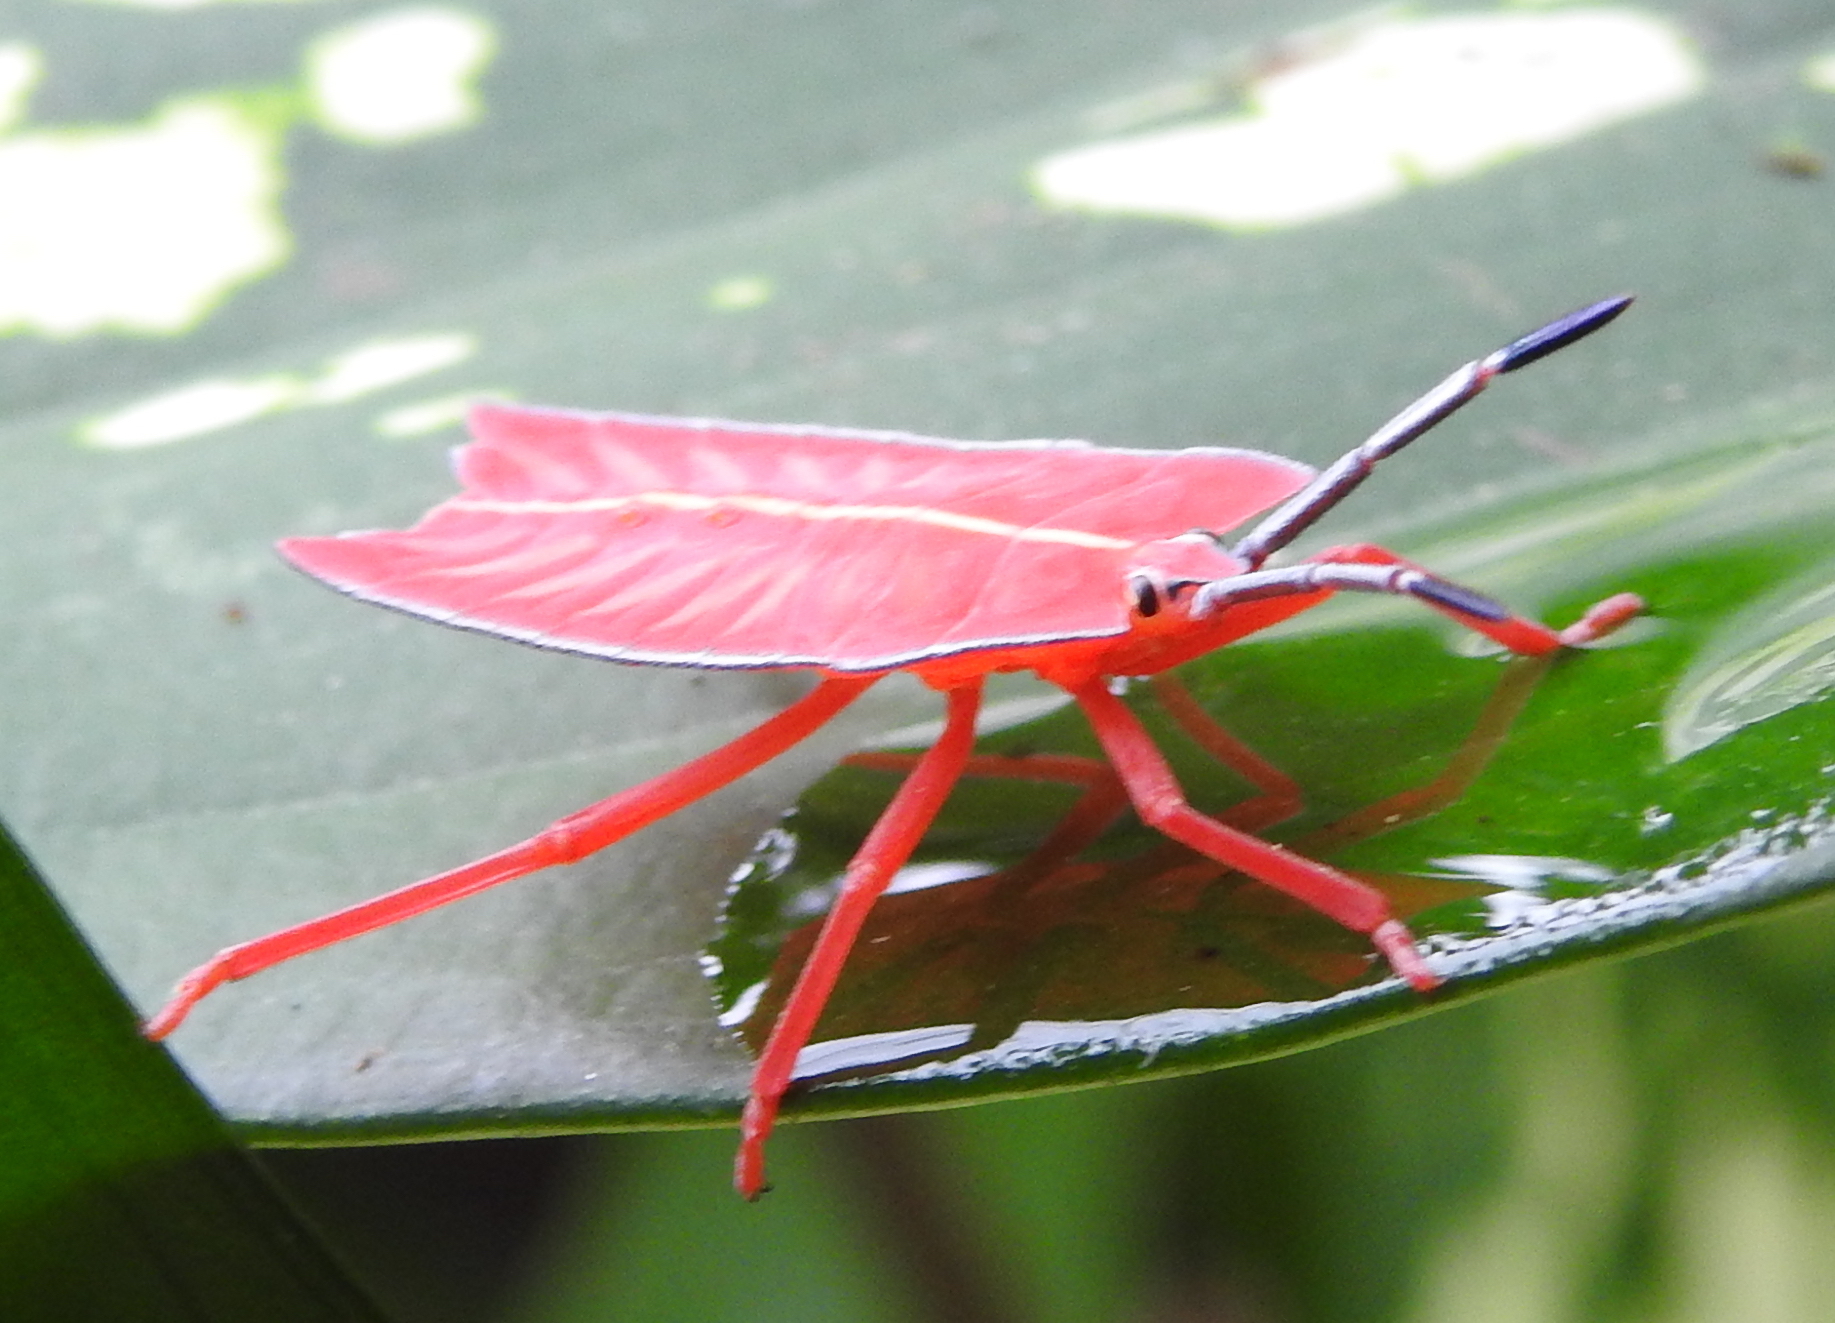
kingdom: Animalia
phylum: Arthropoda
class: Insecta
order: Hemiptera
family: Tessaratomidae
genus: Pycanum
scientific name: Pycanum alternatum
